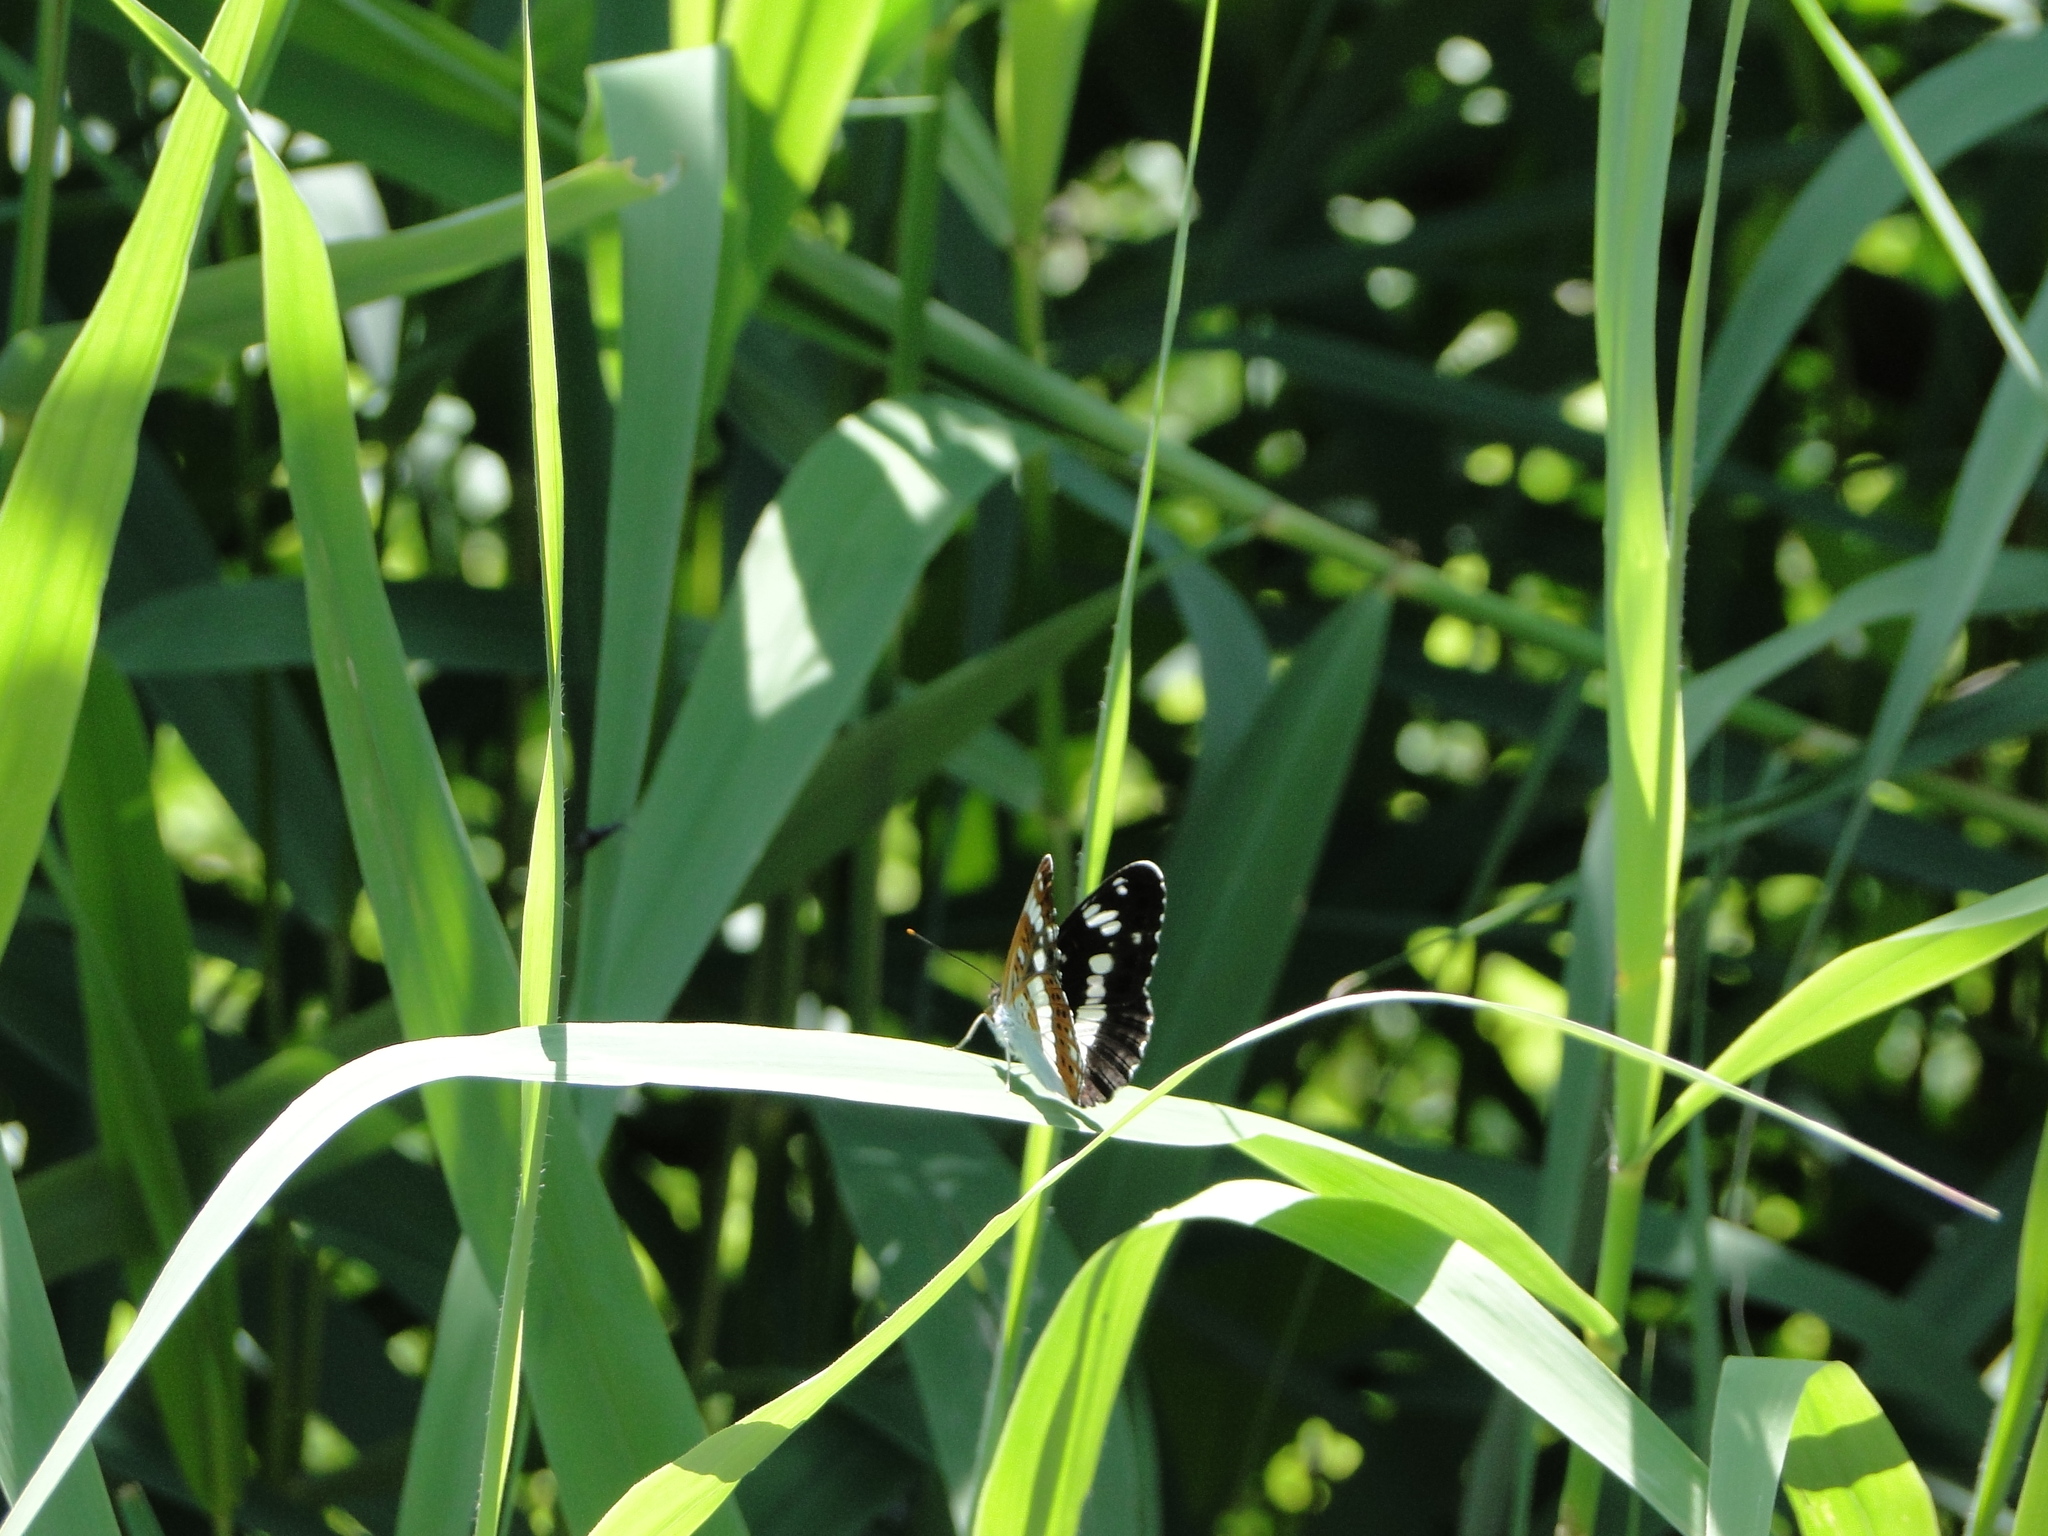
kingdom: Animalia
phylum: Arthropoda
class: Insecta
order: Lepidoptera
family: Nymphalidae
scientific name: Nymphalidae
